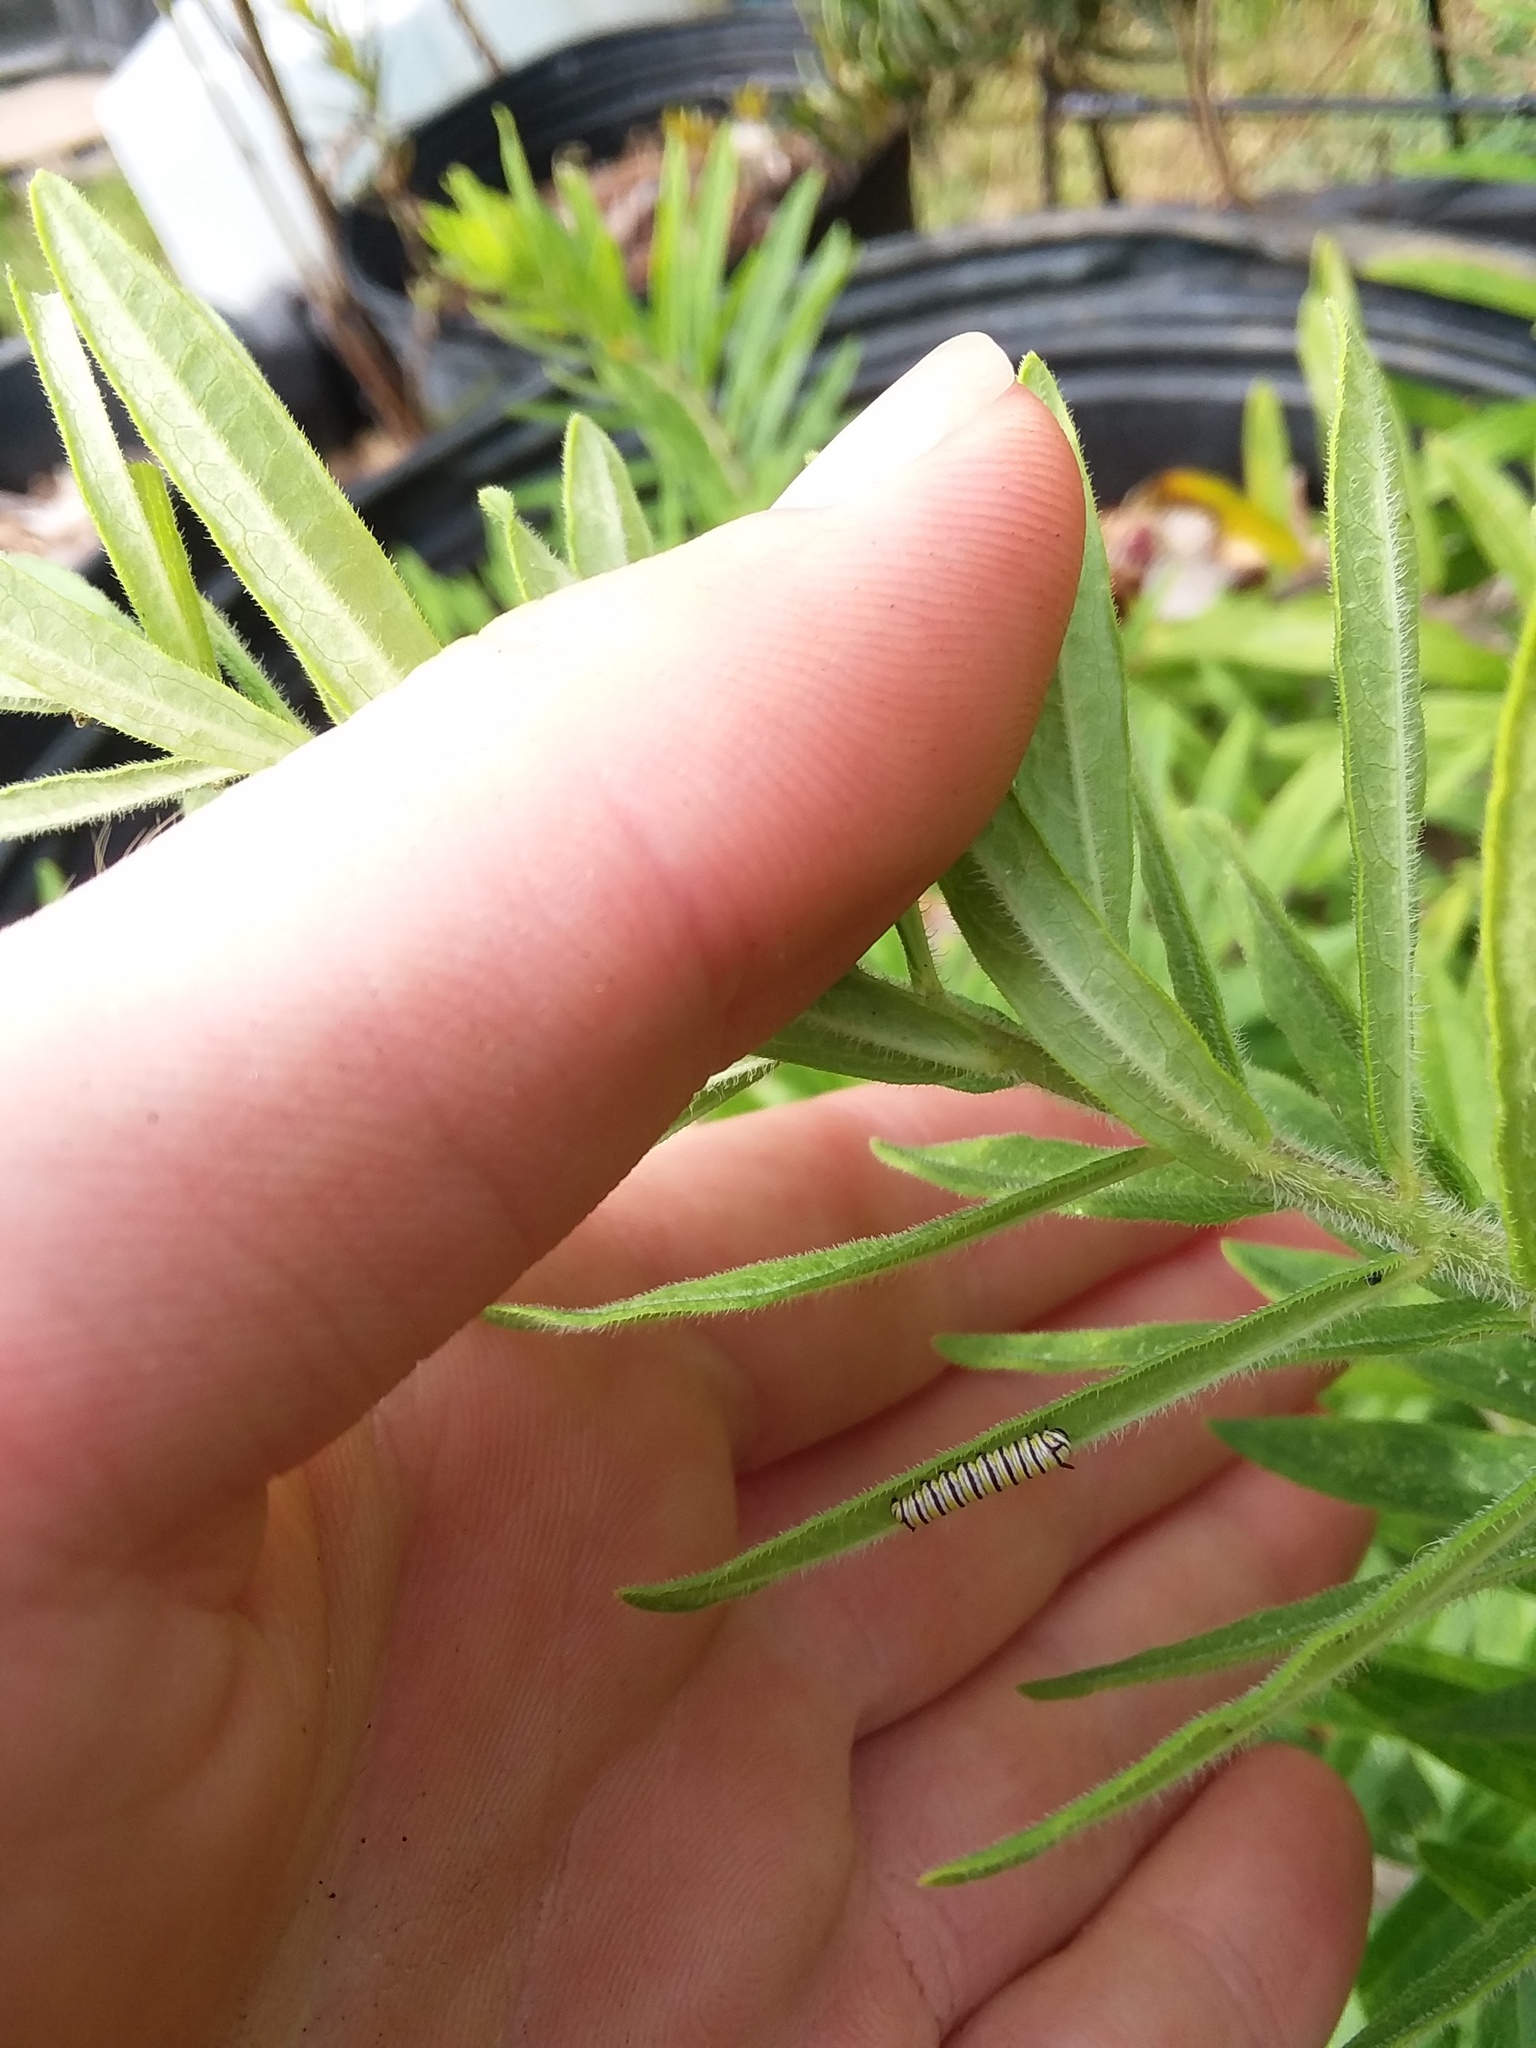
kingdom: Animalia
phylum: Arthropoda
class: Insecta
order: Lepidoptera
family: Nymphalidae
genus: Danaus
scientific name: Danaus plexippus
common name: Monarch
